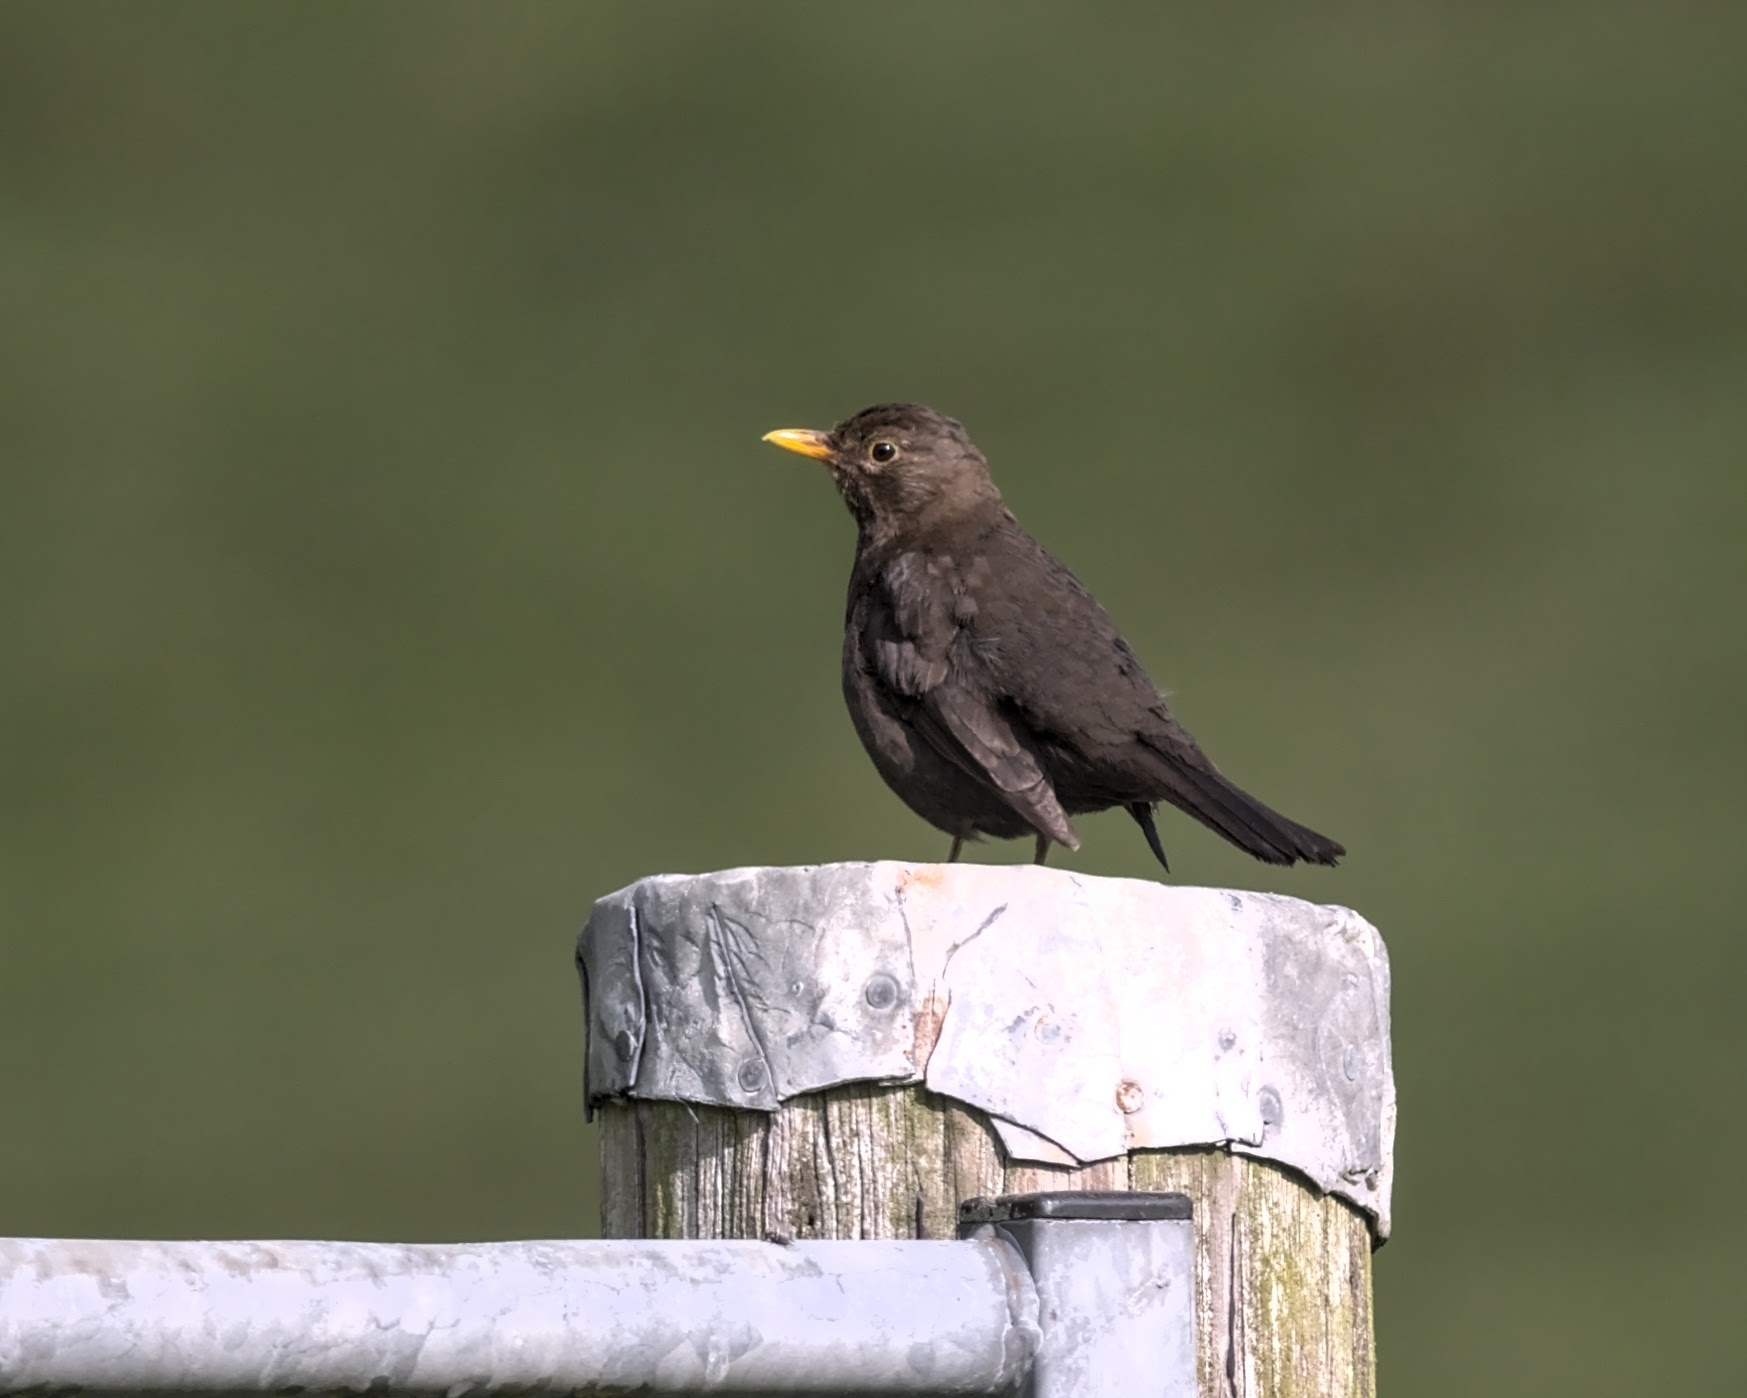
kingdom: Animalia
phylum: Chordata
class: Aves
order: Passeriformes
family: Turdidae
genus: Turdus
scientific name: Turdus merula
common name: Common blackbird
